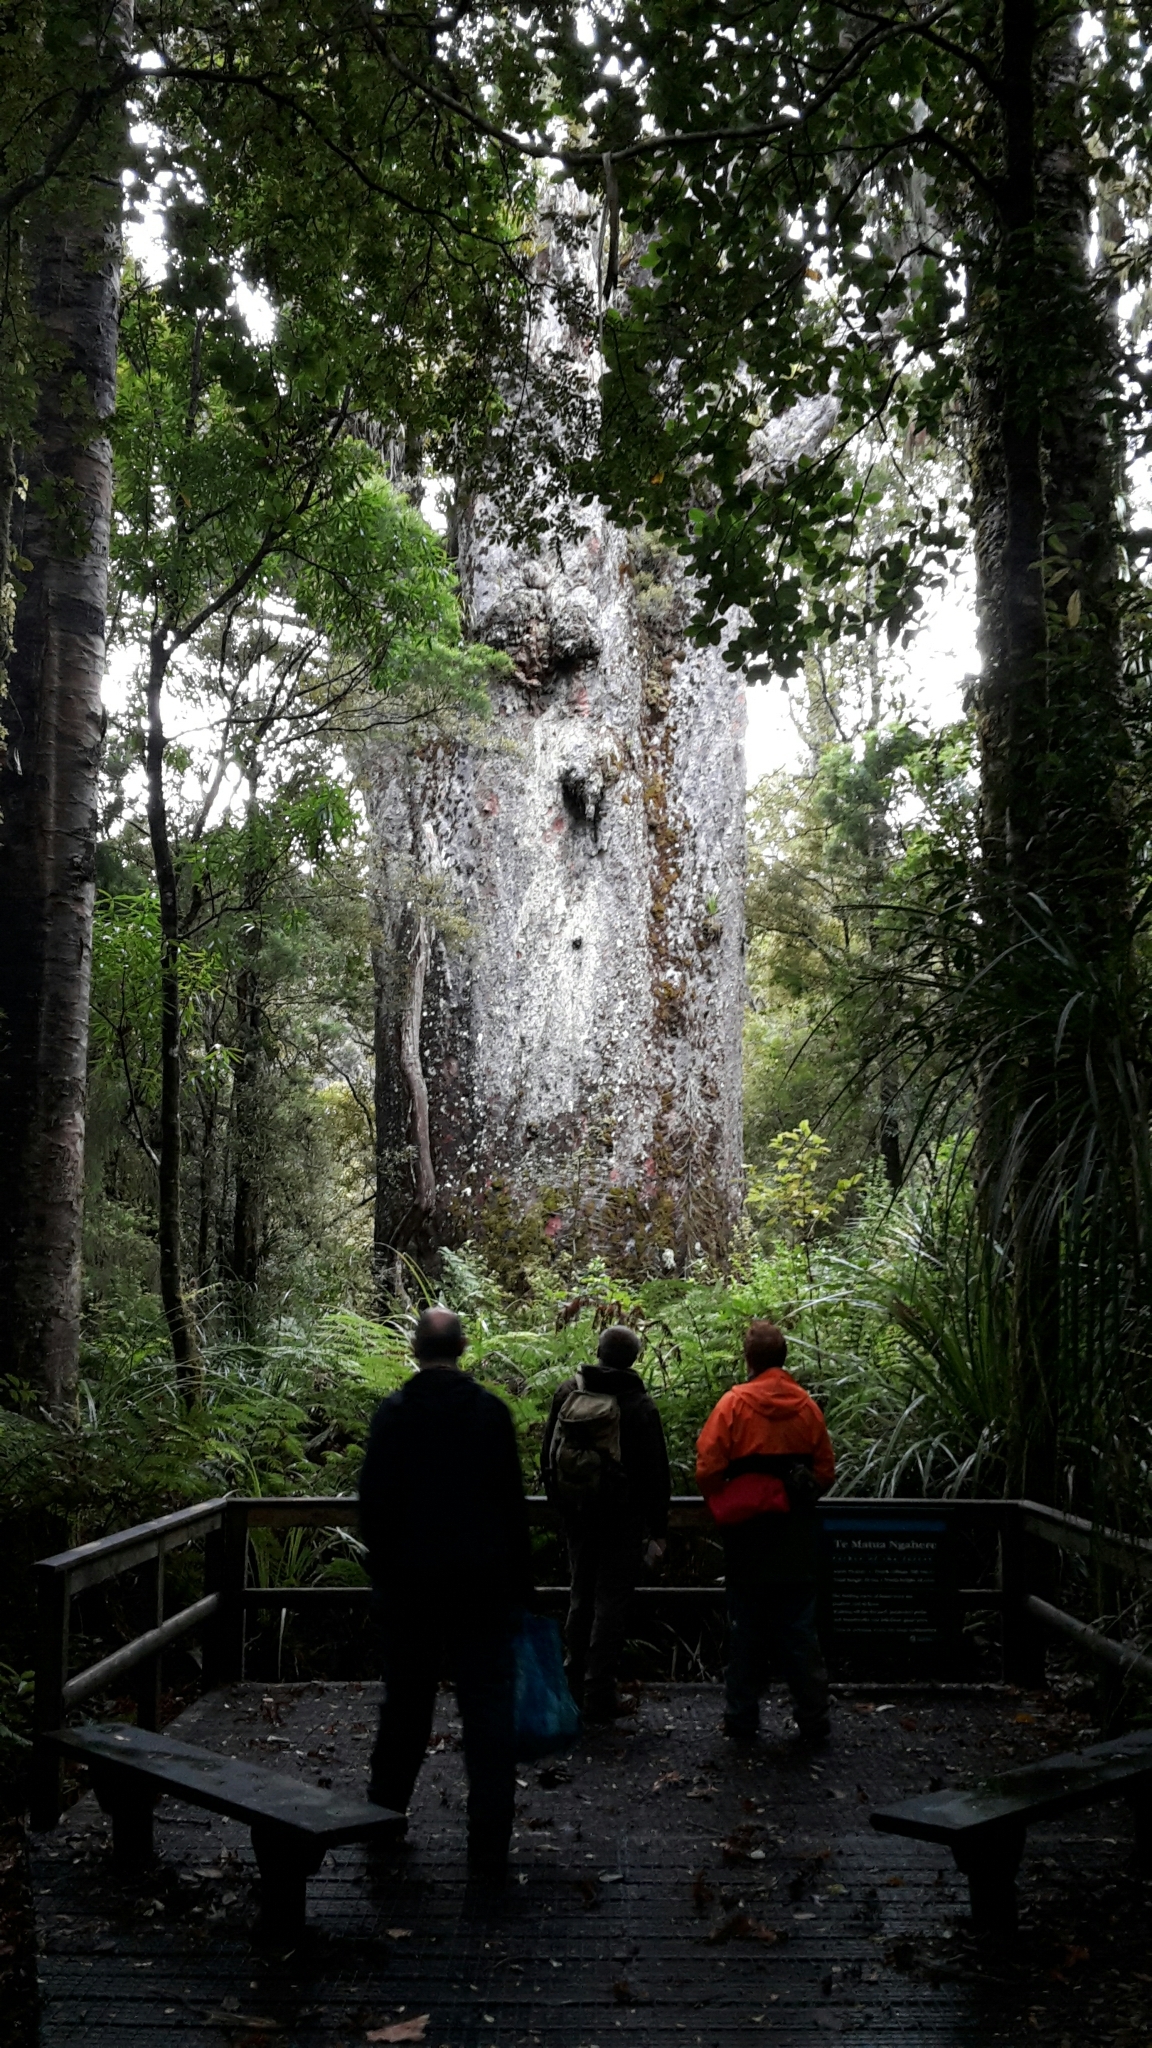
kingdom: Plantae
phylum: Tracheophyta
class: Pinopsida
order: Pinales
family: Araucariaceae
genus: Agathis
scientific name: Agathis australis
